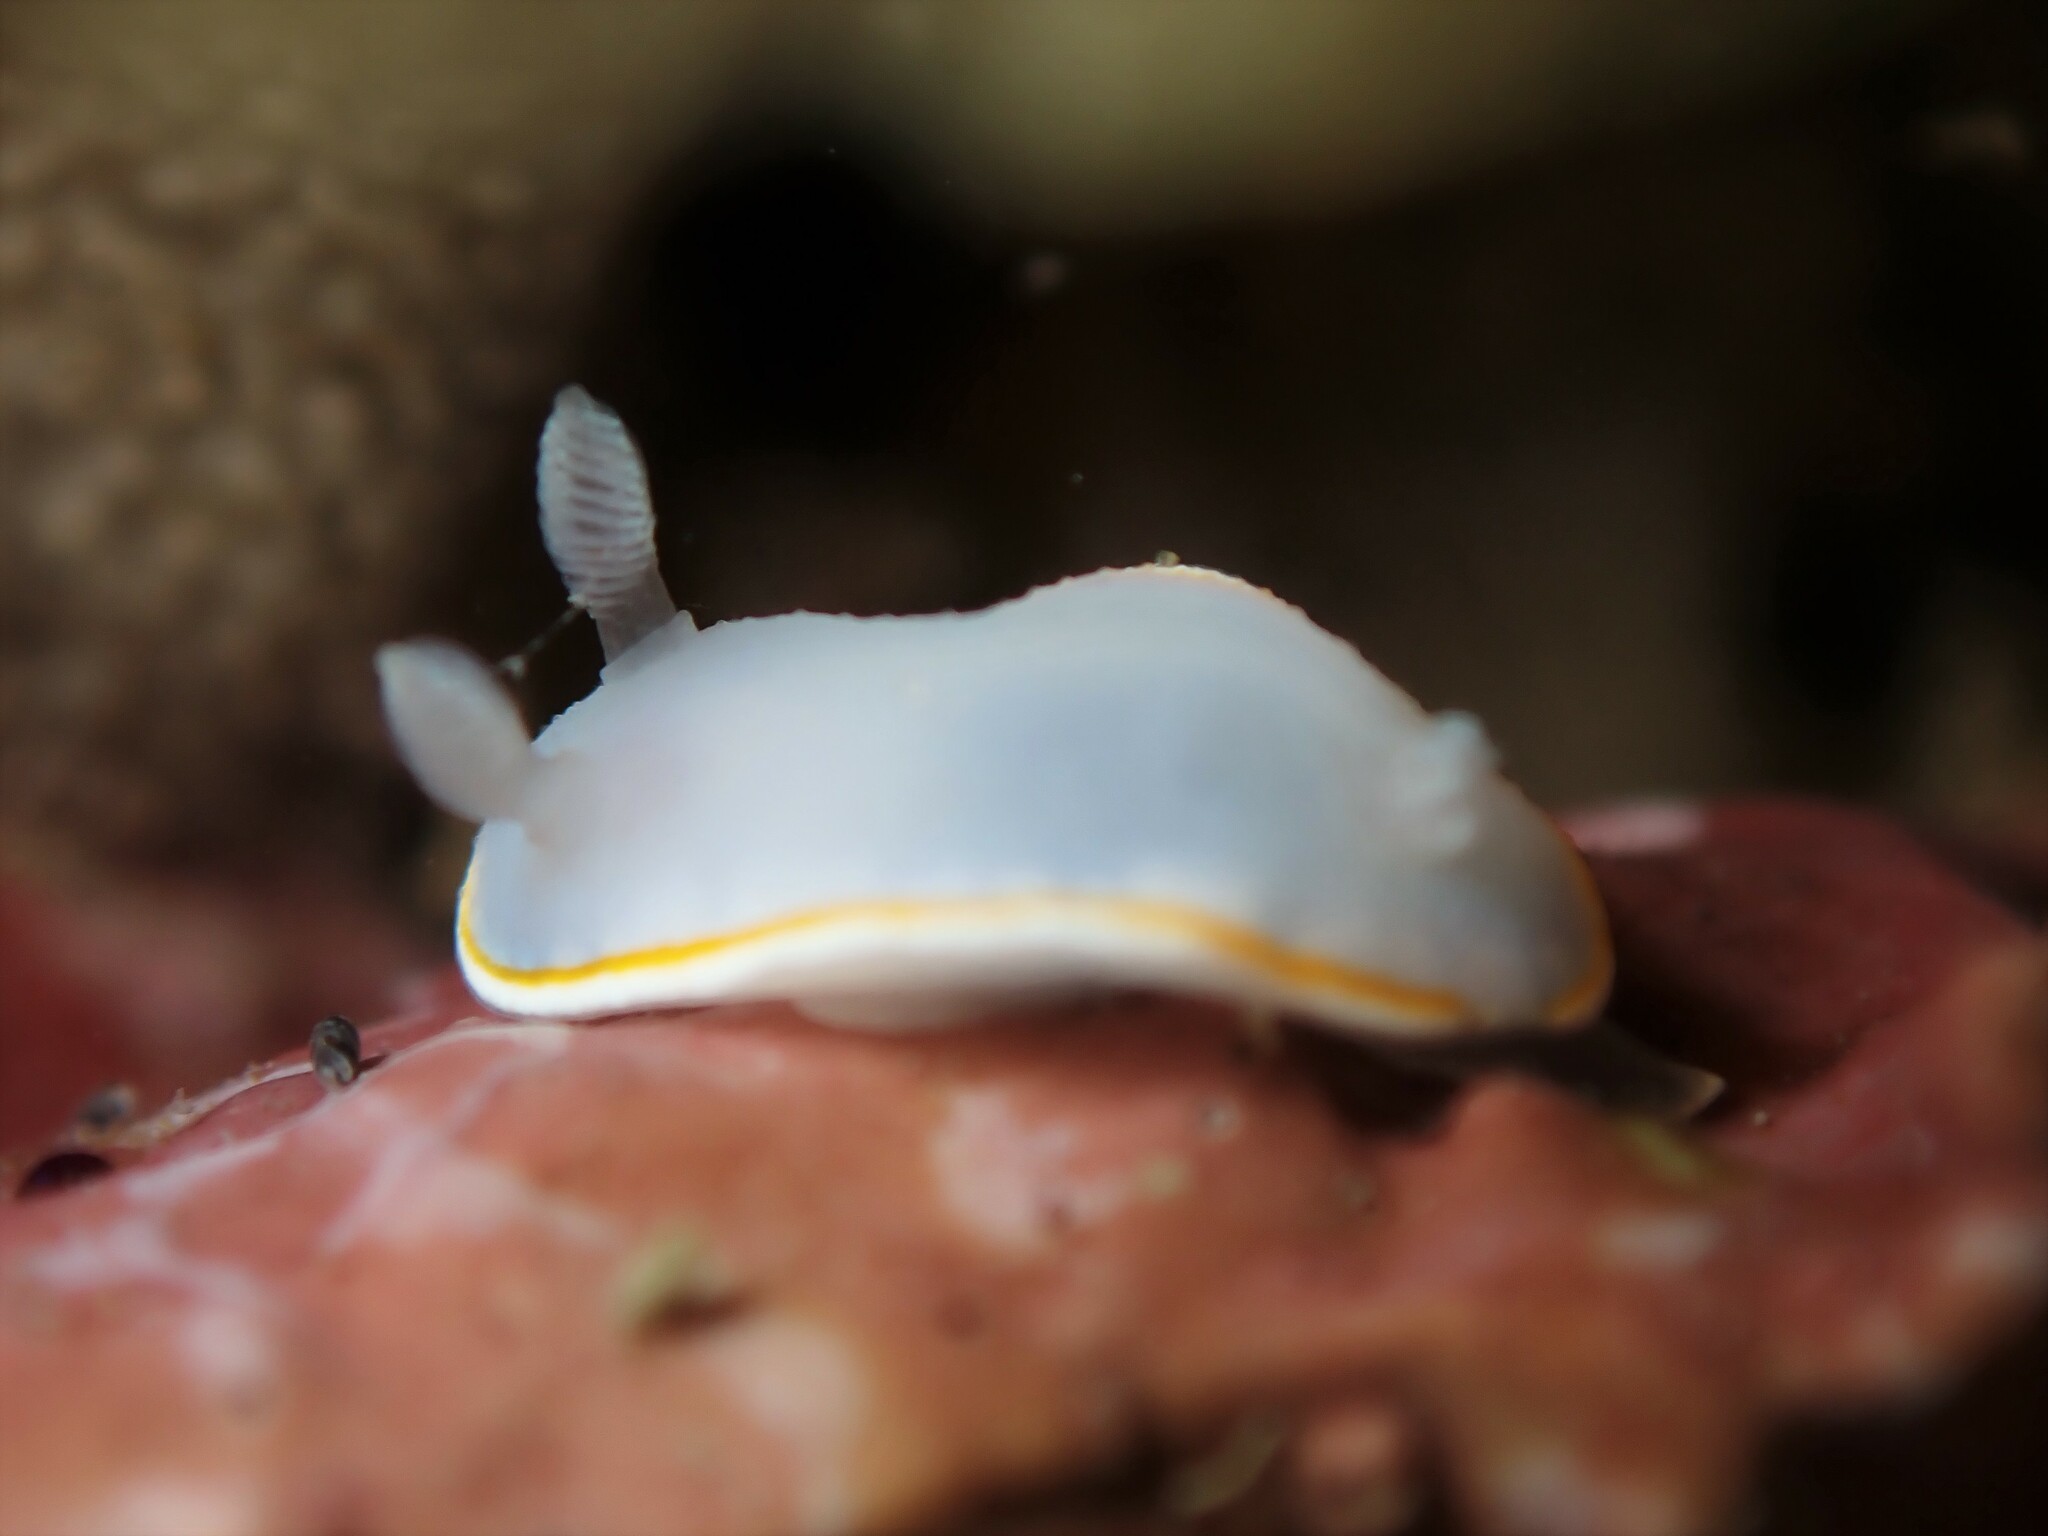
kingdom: Animalia
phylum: Mollusca
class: Gastropoda
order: Nudibranchia
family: Chromodorididae
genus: Goniobranchus
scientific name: Goniobranchus aureomarginatus
